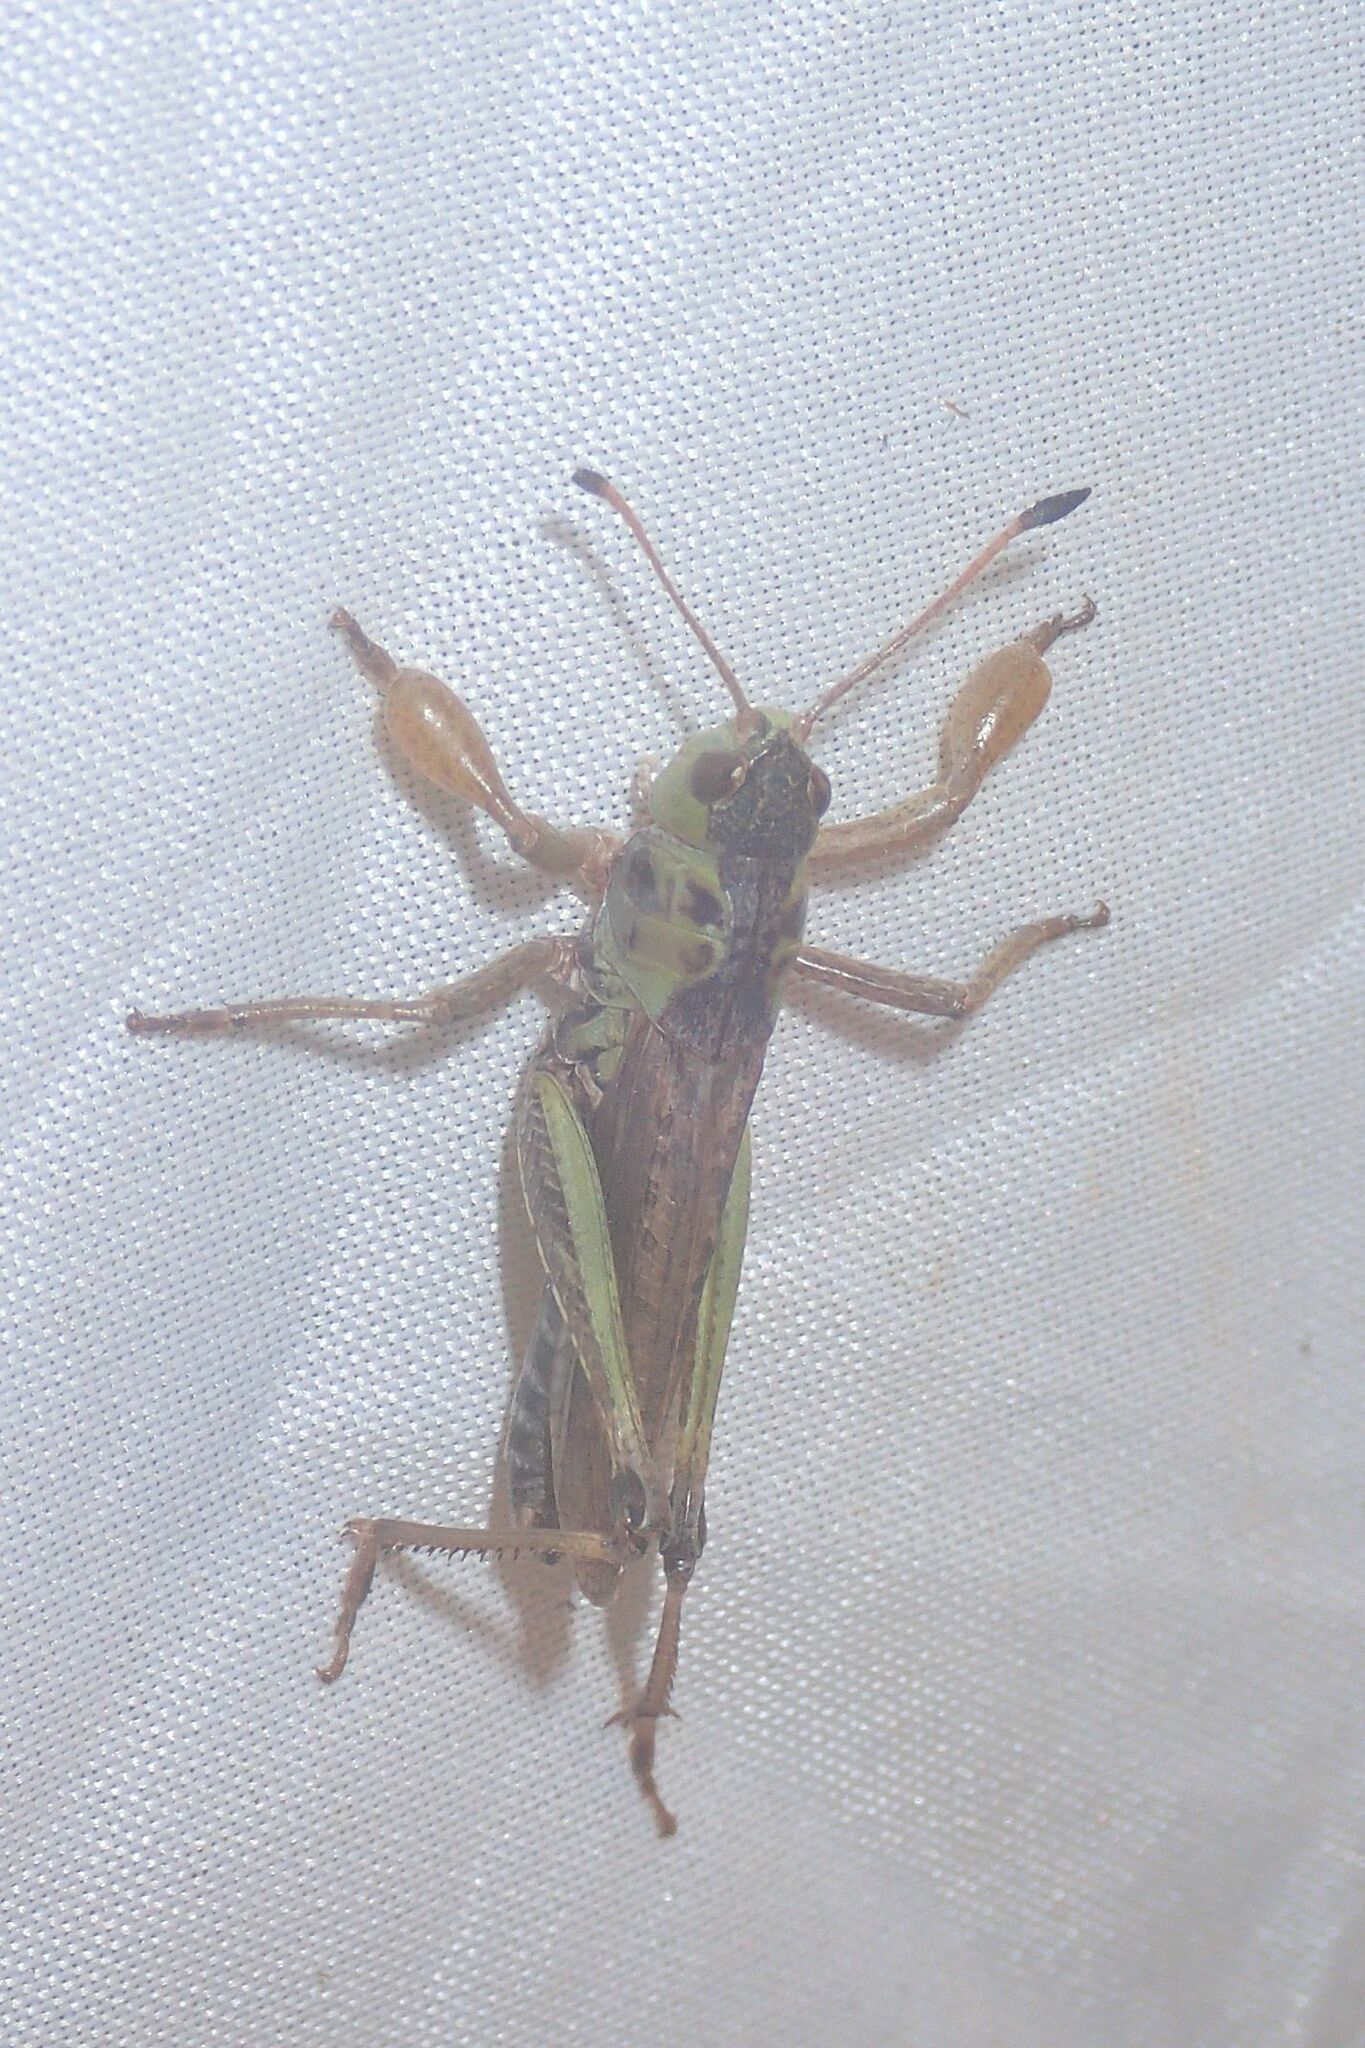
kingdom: Animalia
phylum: Arthropoda
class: Insecta
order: Orthoptera
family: Acrididae
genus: Gomphocerus
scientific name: Gomphocerus sibiricus
